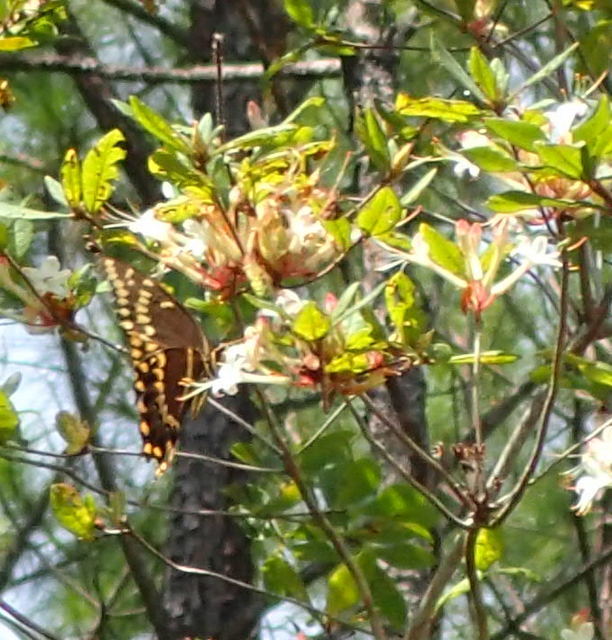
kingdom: Animalia
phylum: Arthropoda
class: Insecta
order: Lepidoptera
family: Papilionidae
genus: Papilio
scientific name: Papilio palamedes
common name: Palamedes swallowtail
